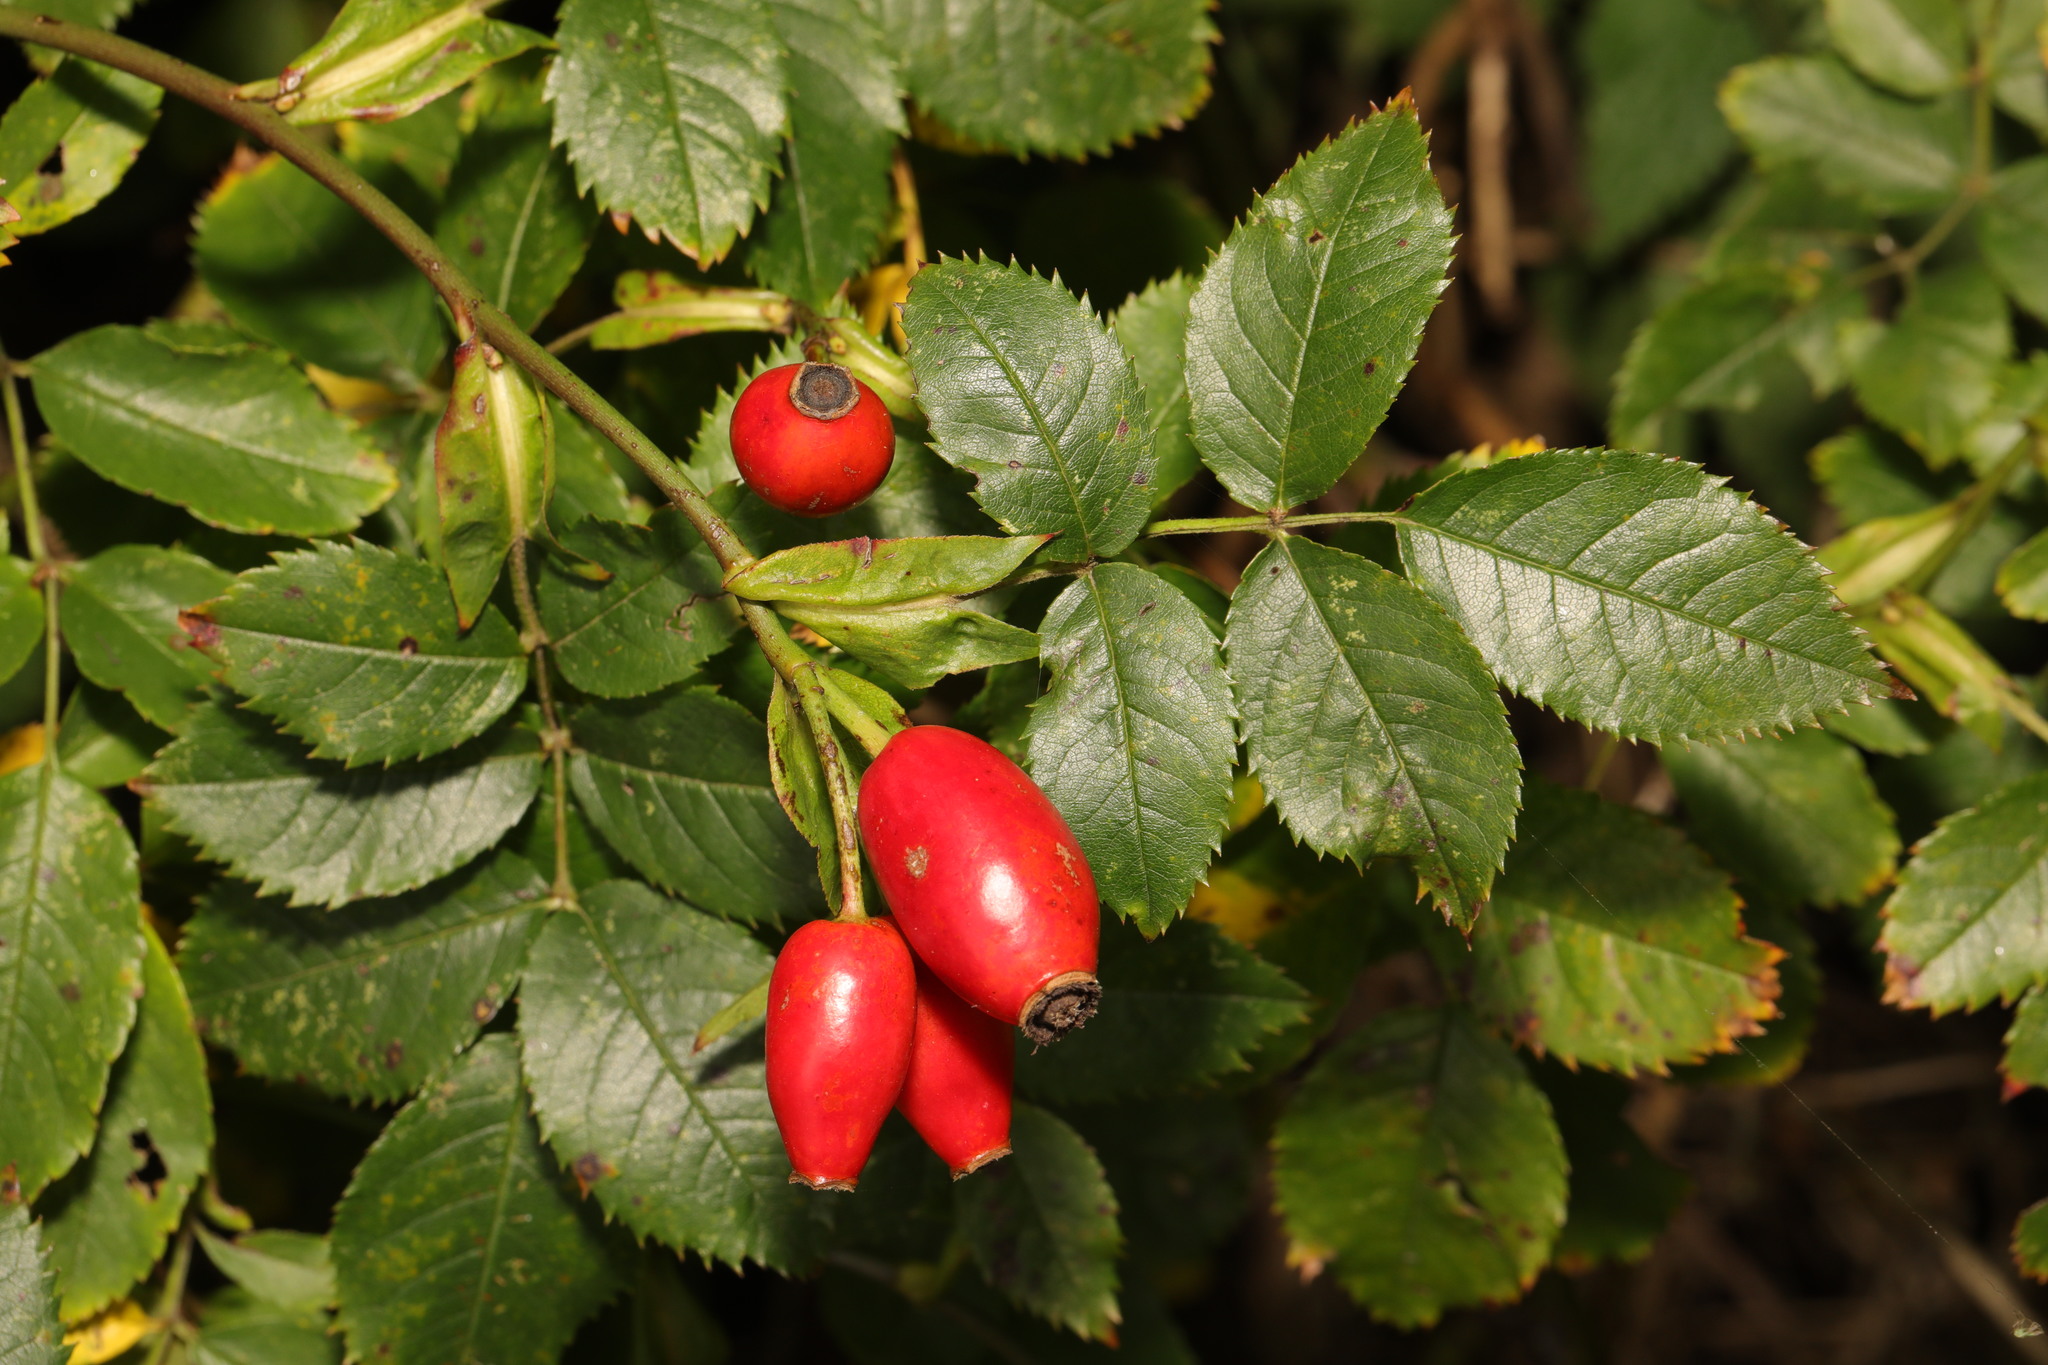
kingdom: Plantae
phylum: Tracheophyta
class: Magnoliopsida
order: Rosales
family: Rosaceae
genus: Rosa
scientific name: Rosa canina
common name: Dog rose
